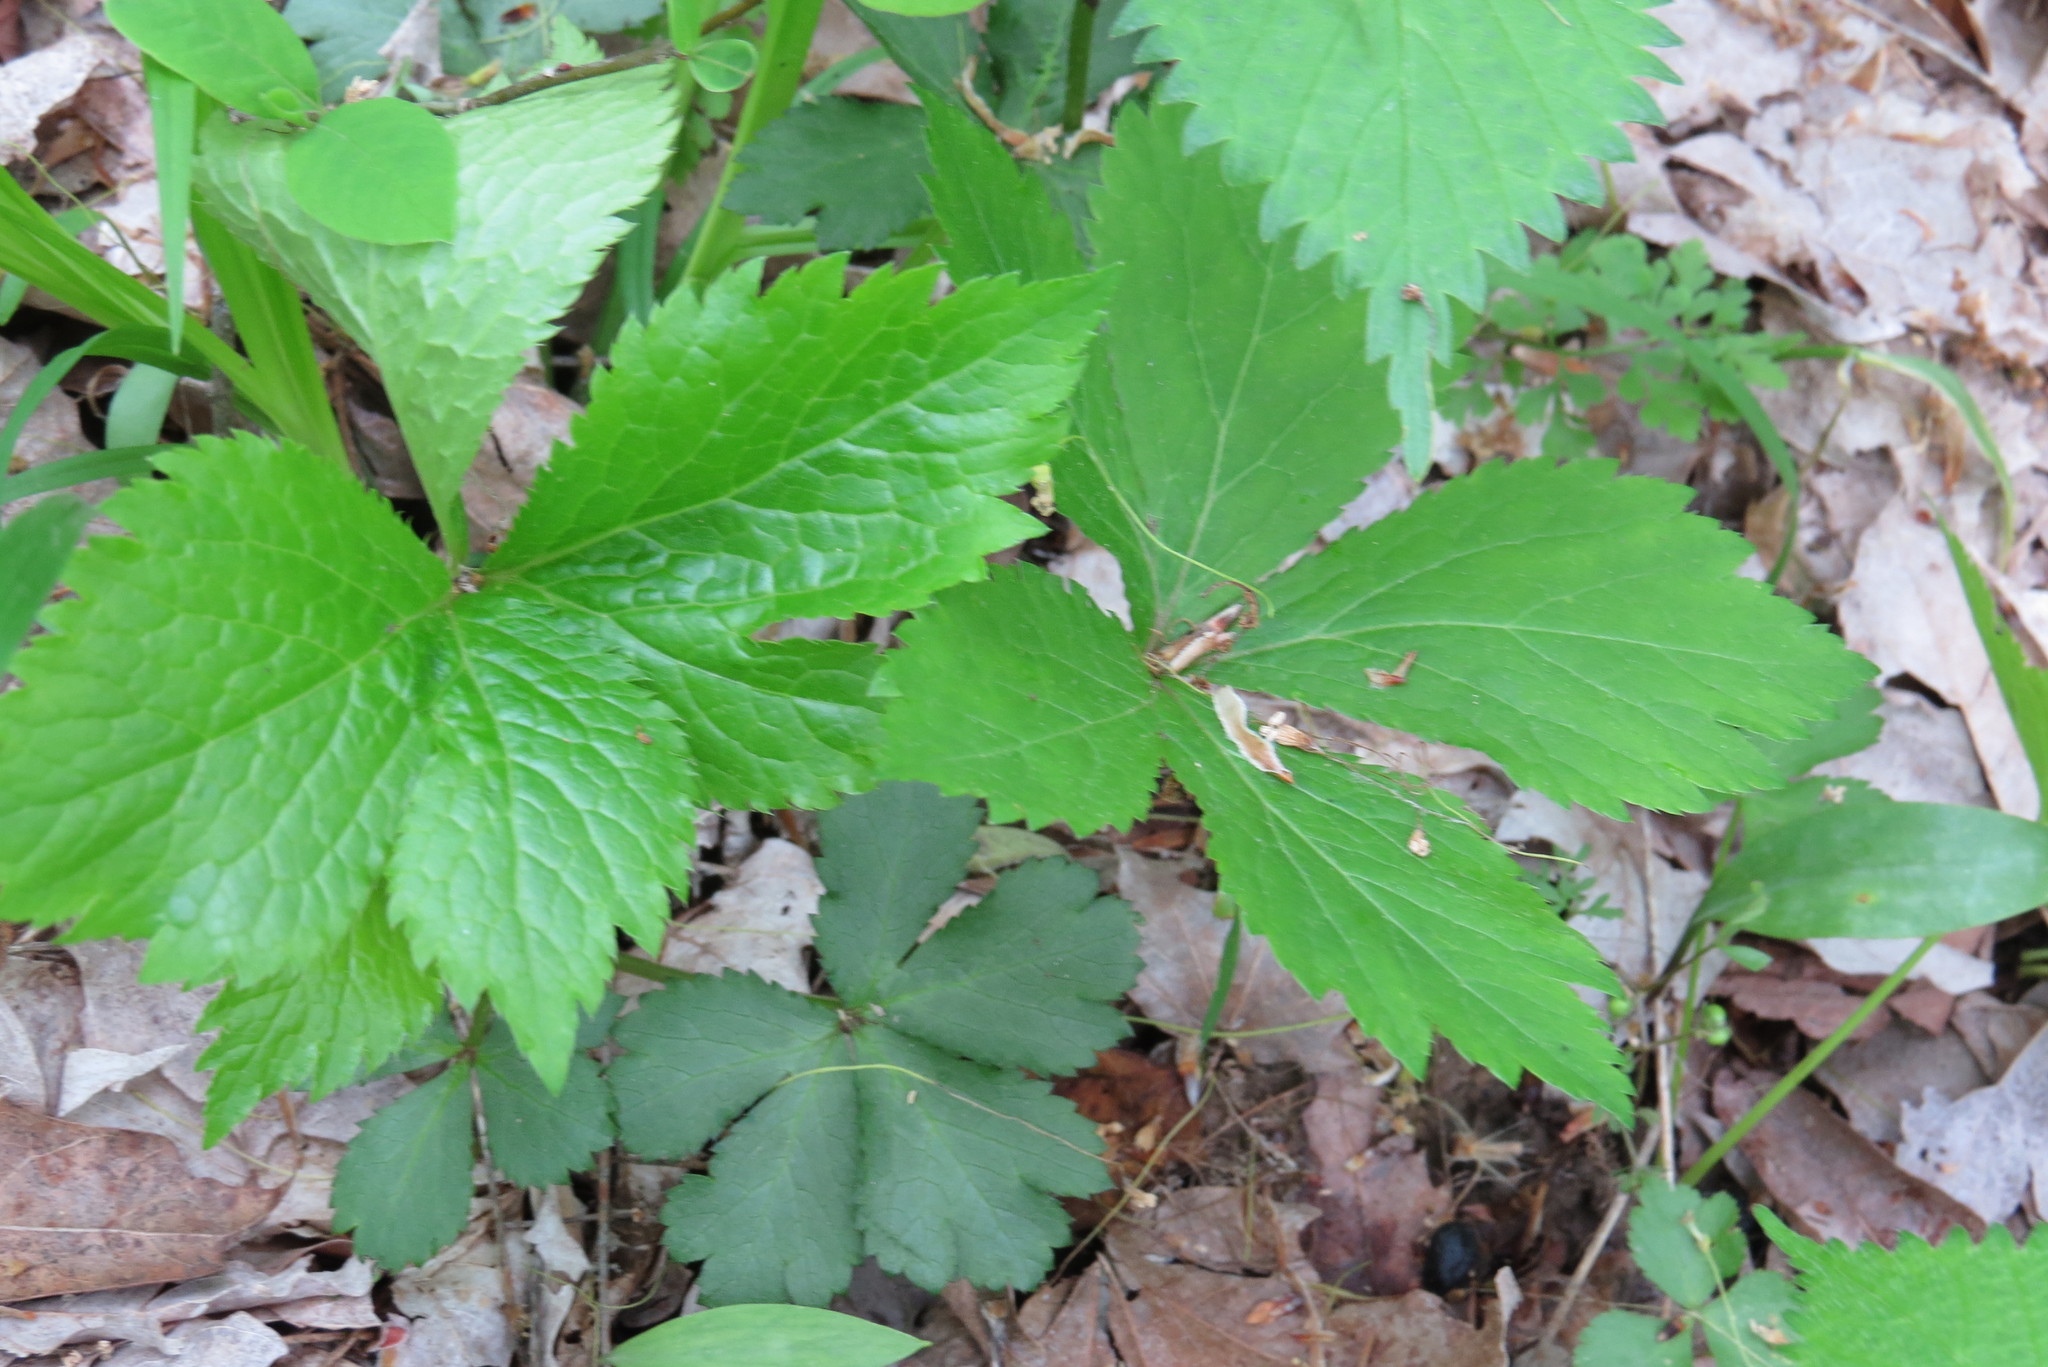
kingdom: Plantae
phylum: Tracheophyta
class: Magnoliopsida
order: Apiales
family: Apiaceae
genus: Sanicula
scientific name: Sanicula canadensis
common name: Canada sanicle
